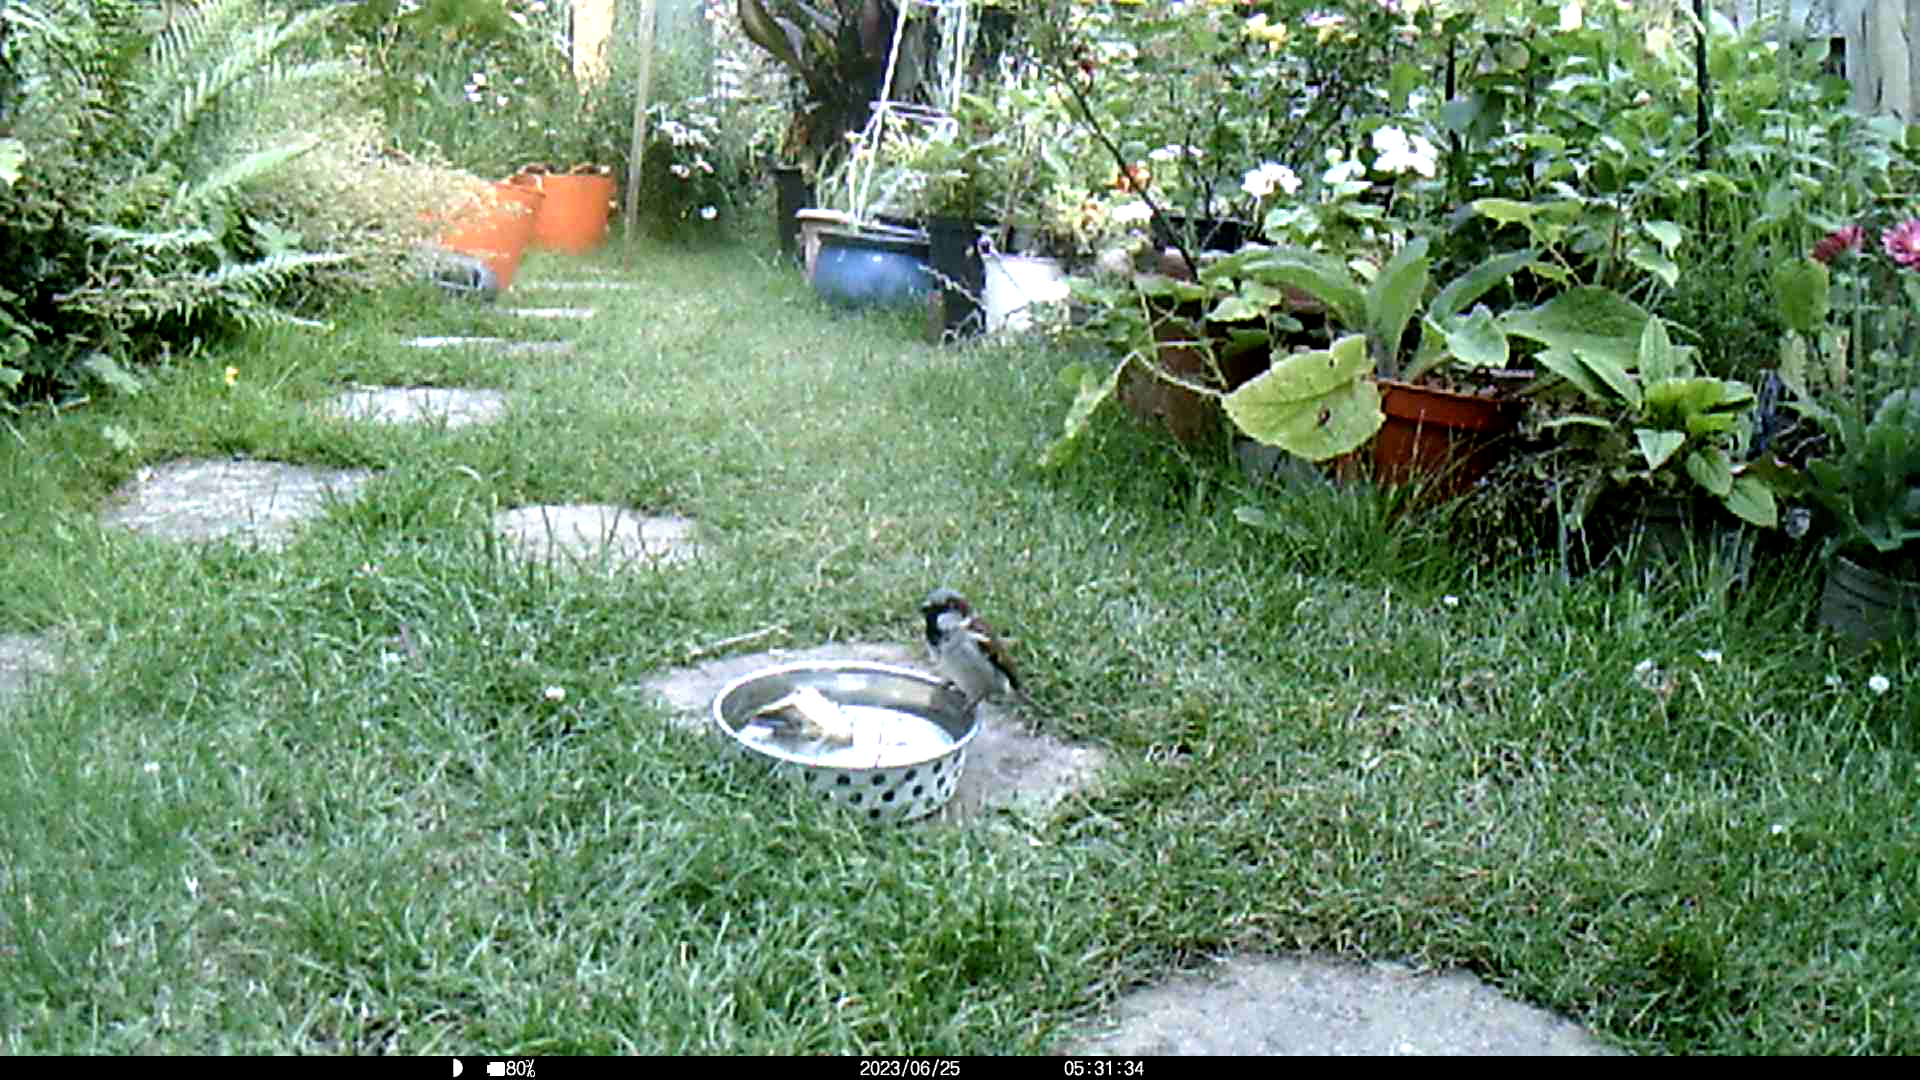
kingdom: Animalia
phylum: Chordata
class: Aves
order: Passeriformes
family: Passeridae
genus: Passer
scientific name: Passer domesticus
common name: House sparrow
